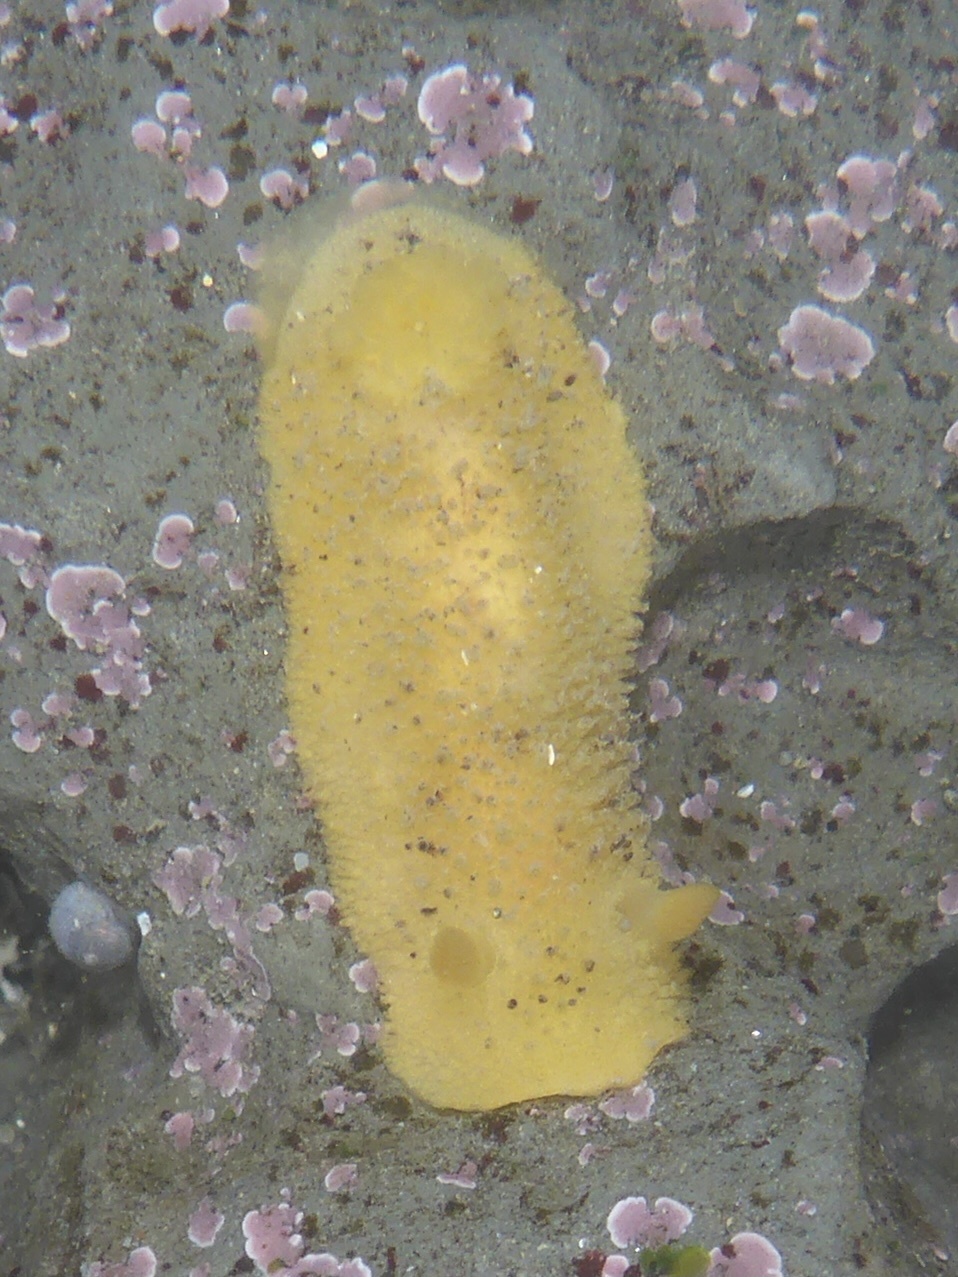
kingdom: Animalia
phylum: Mollusca
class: Gastropoda
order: Nudibranchia
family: Dorididae
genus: Doris
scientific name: Doris montereyensis
